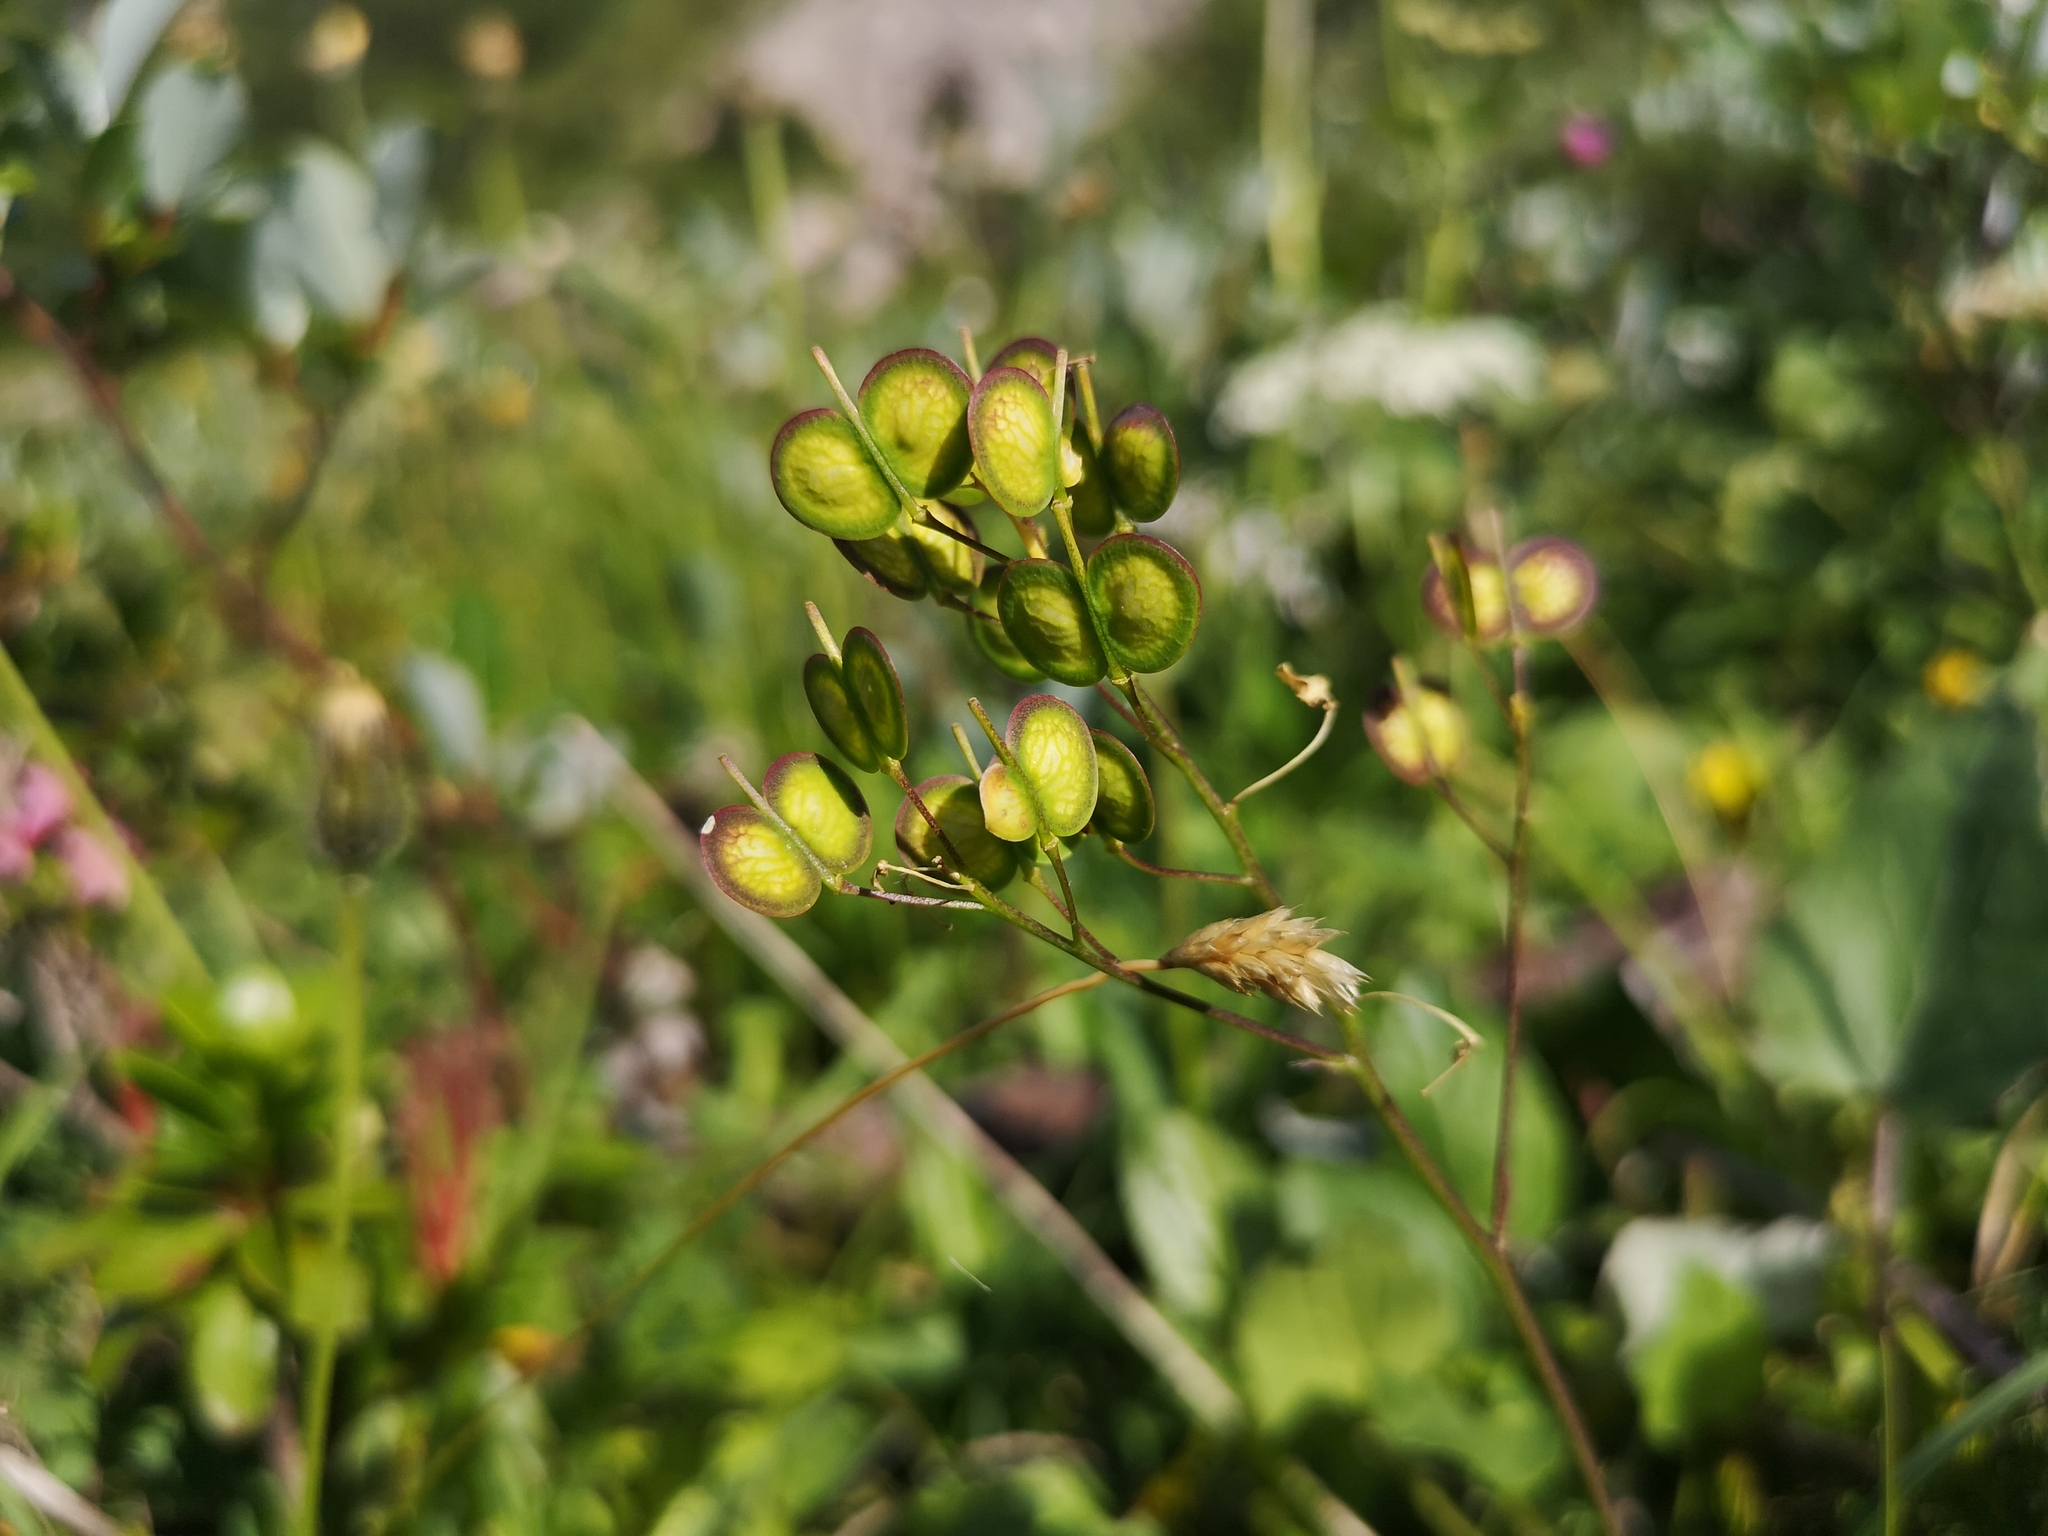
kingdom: Plantae
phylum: Tracheophyta
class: Magnoliopsida
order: Brassicales
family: Brassicaceae
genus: Biscutella
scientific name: Biscutella laevigata
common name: Buckler mustard
